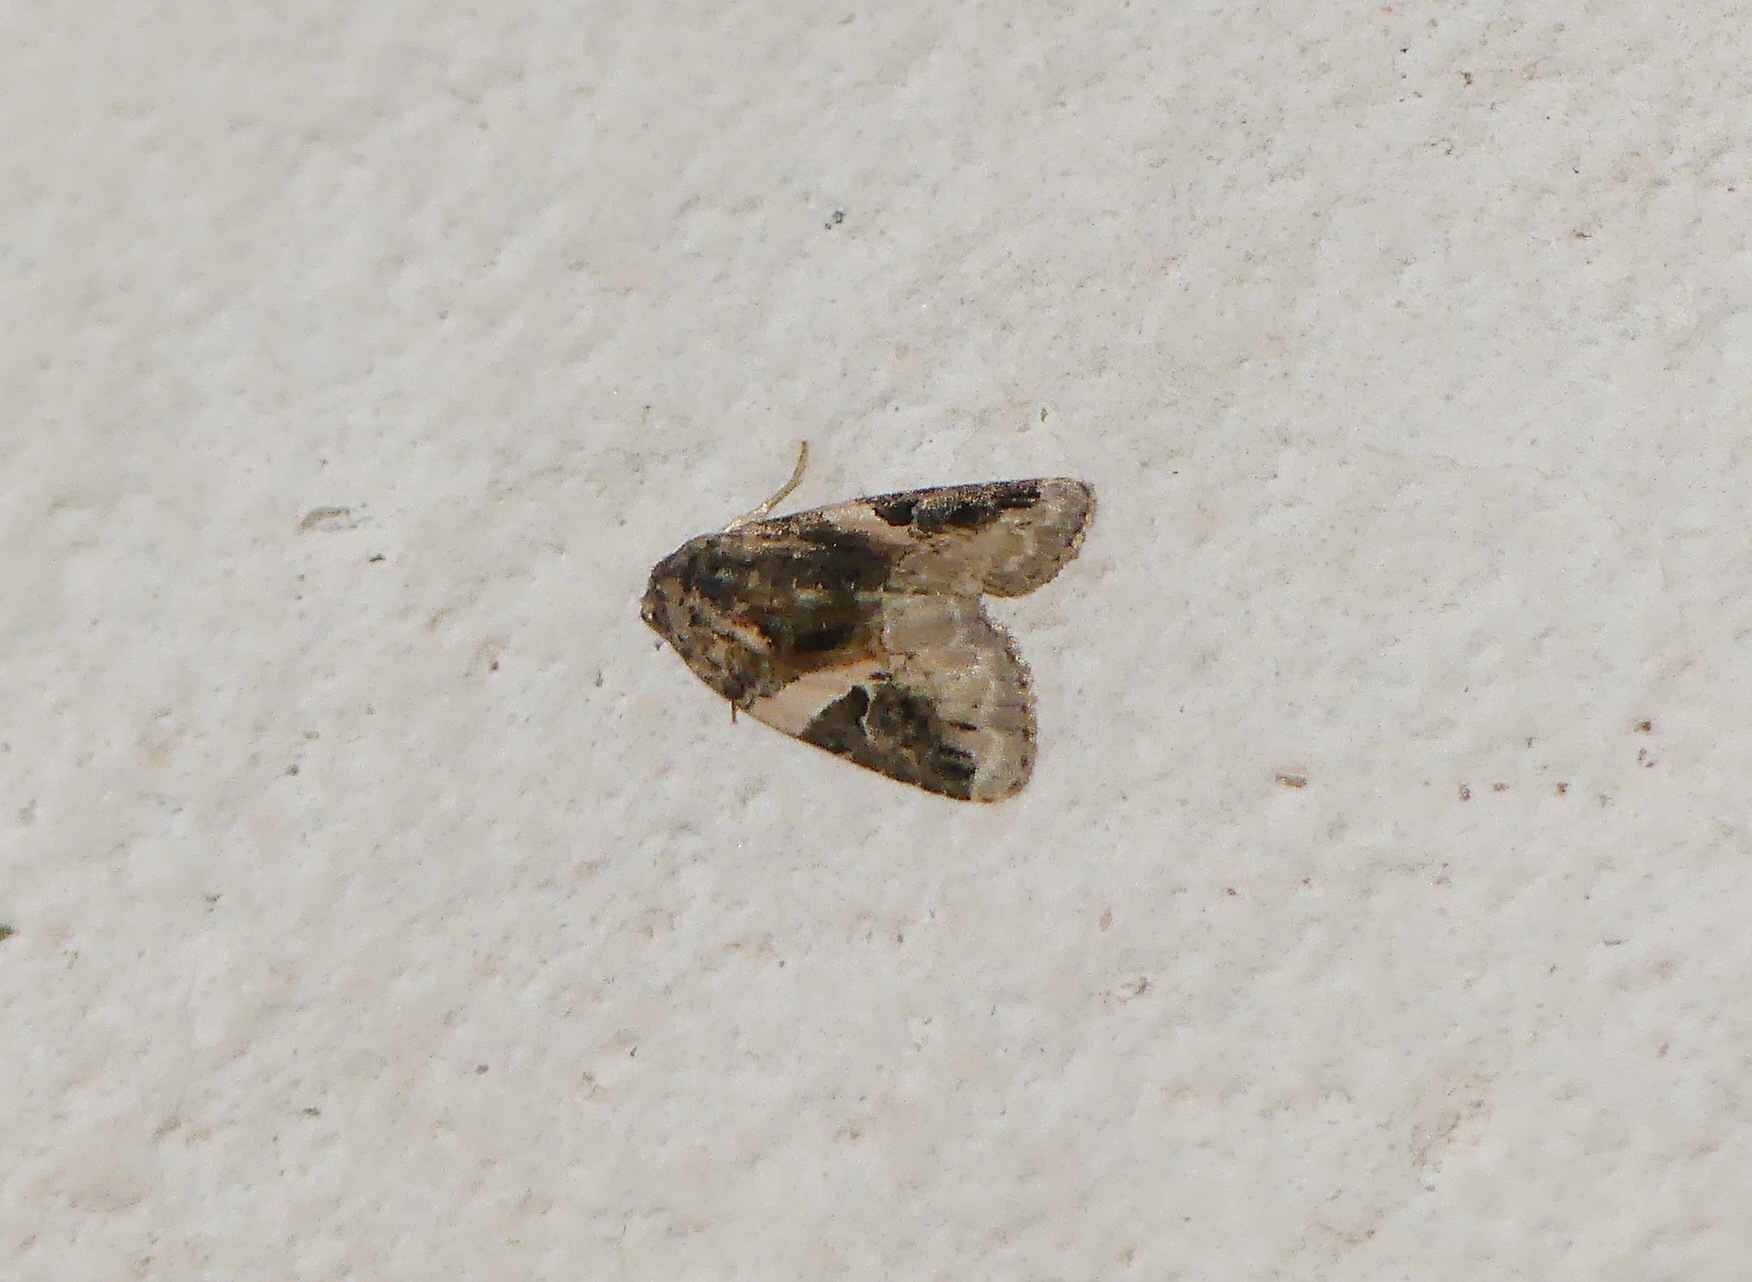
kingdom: Animalia
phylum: Arthropoda
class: Insecta
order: Lepidoptera
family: Noctuidae
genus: Pseudeustrotia
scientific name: Pseudeustrotia carneola
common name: Pink-barred lithacodia moth
